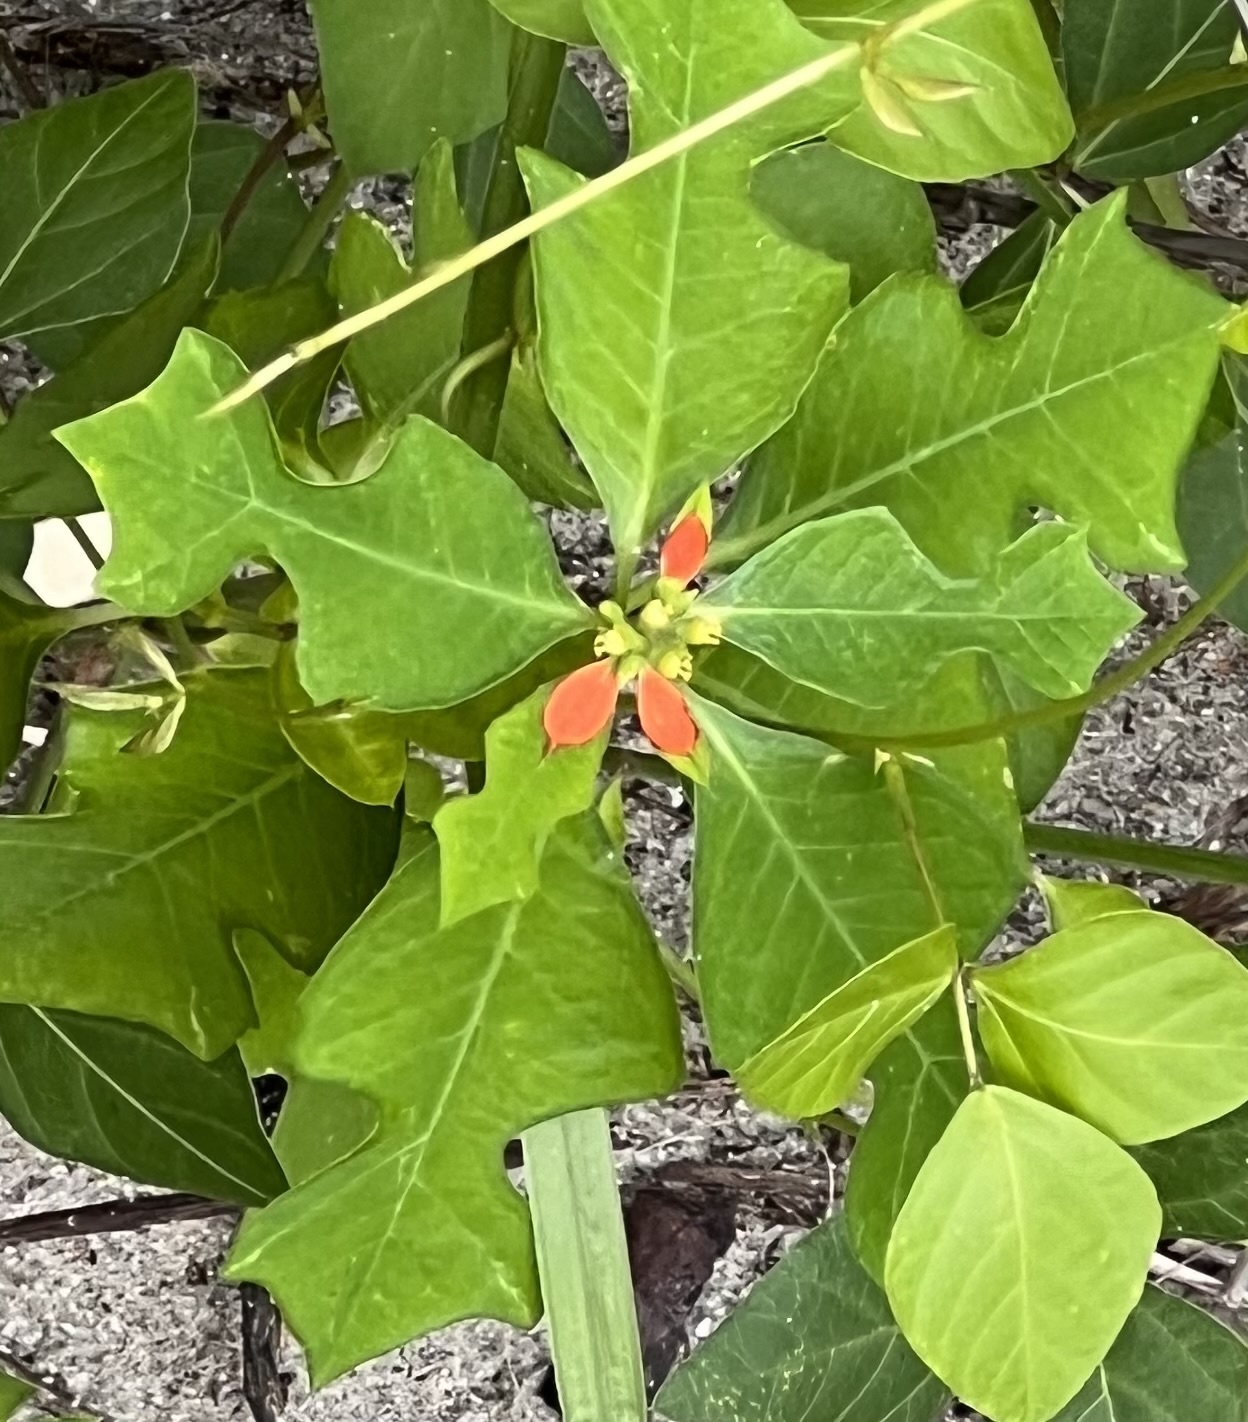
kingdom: Plantae
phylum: Tracheophyta
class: Magnoliopsida
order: Malpighiales
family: Euphorbiaceae
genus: Euphorbia
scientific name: Euphorbia heterophylla
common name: Mexican fireplant
